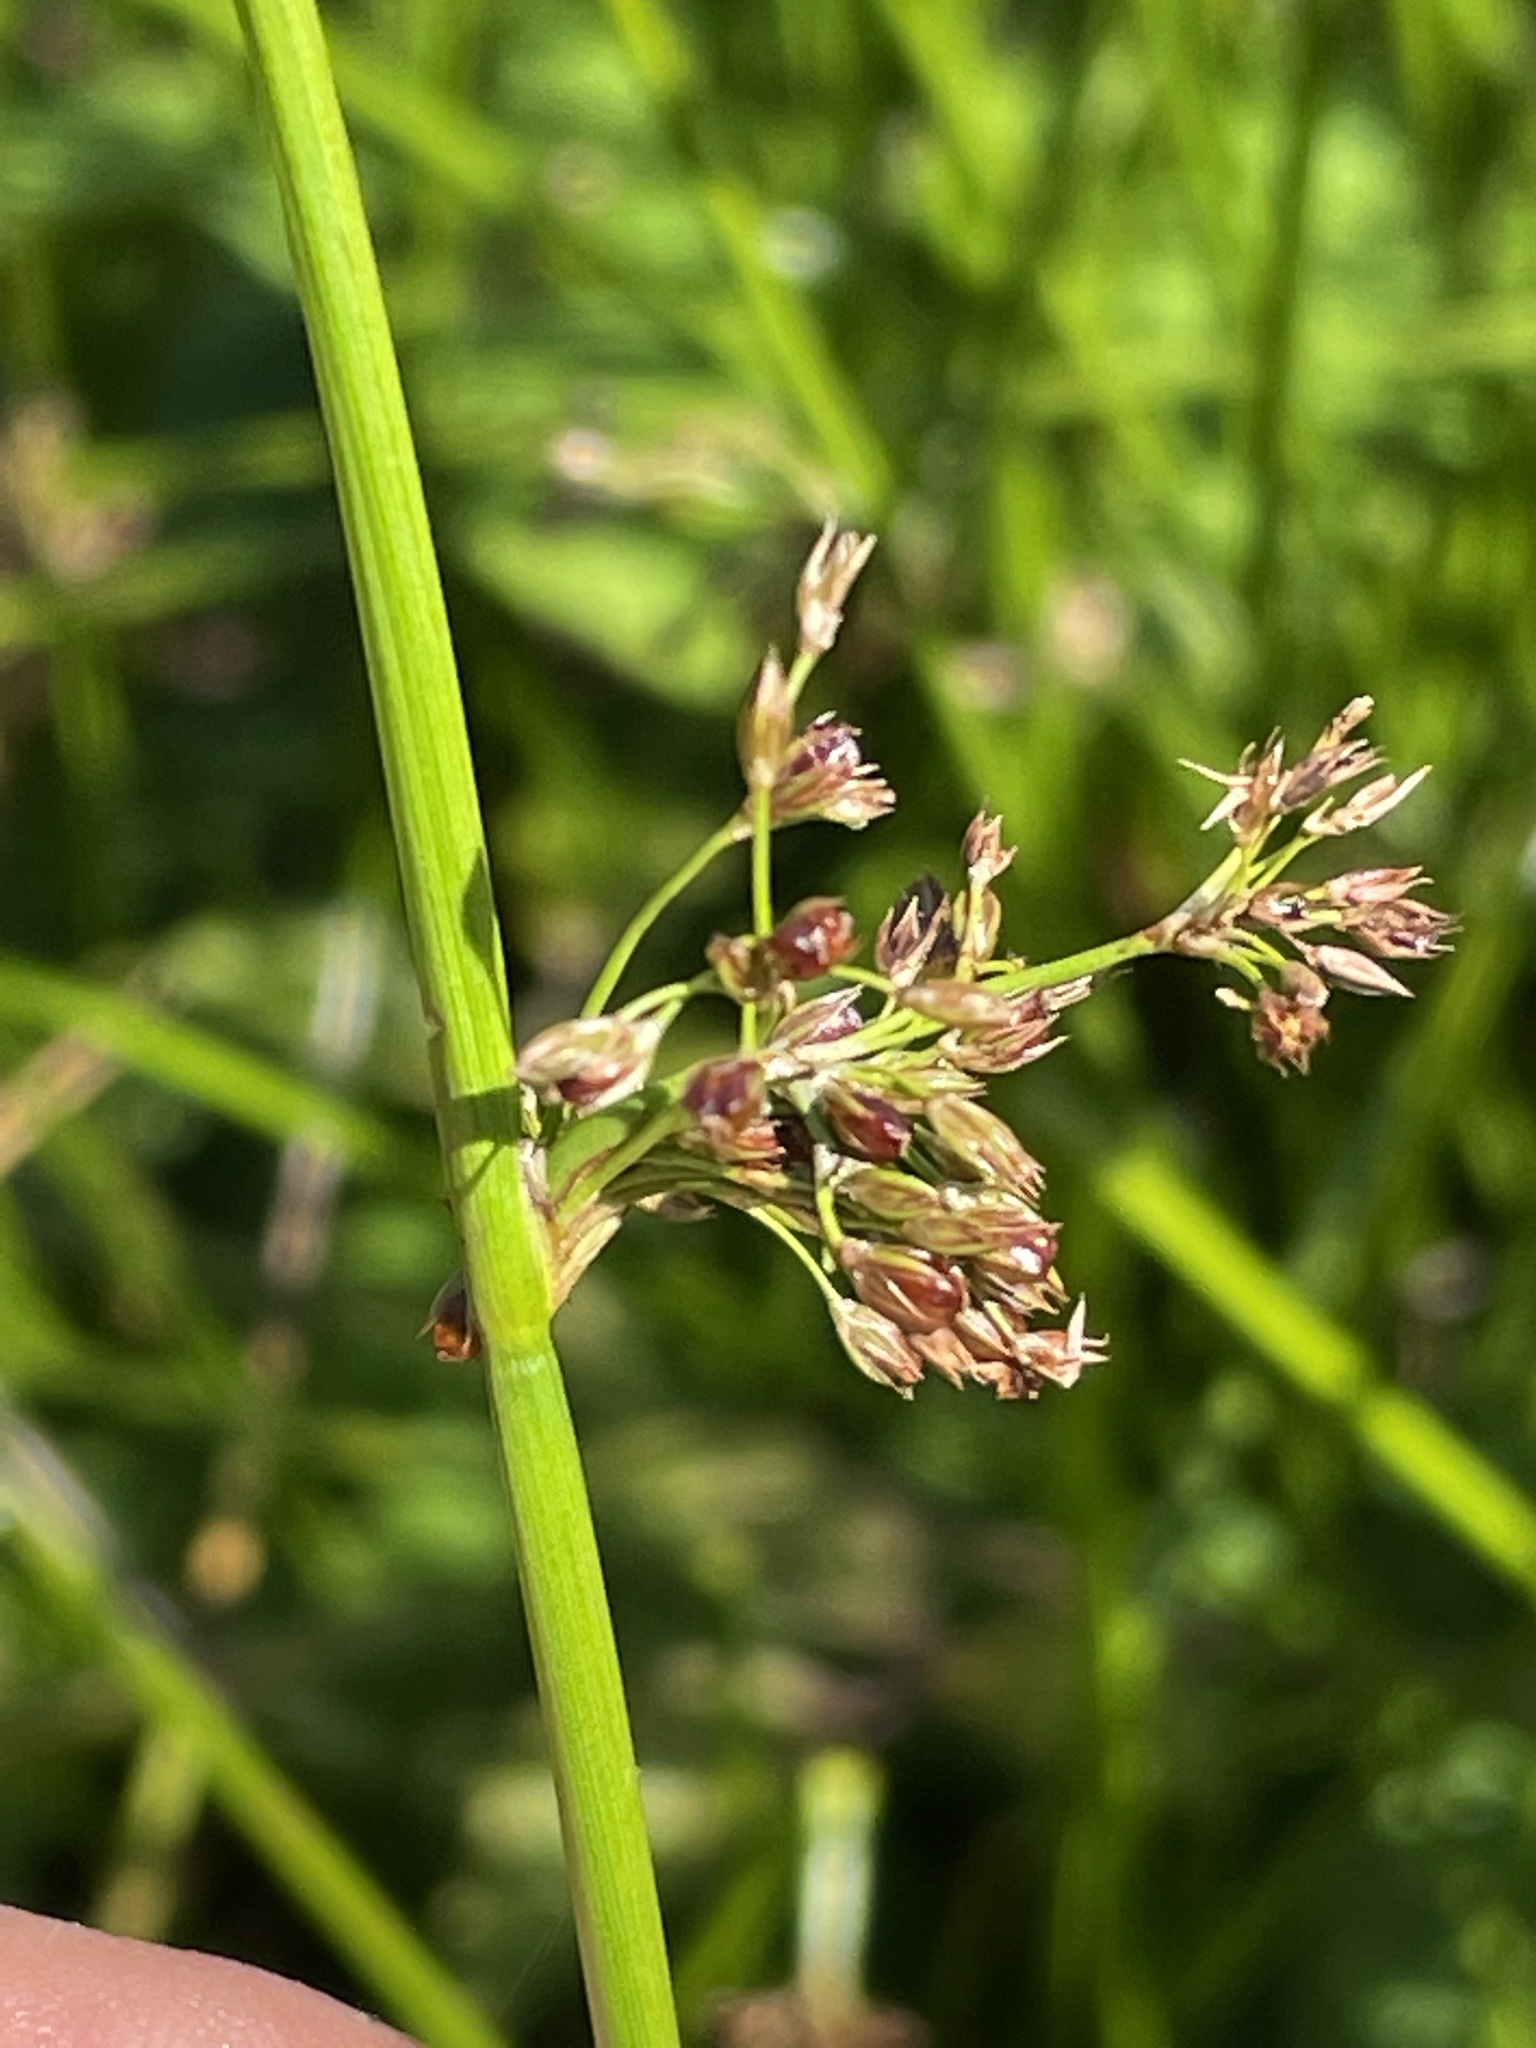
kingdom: Plantae
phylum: Tracheophyta
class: Liliopsida
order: Poales
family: Juncaceae
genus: Juncus
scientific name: Juncus effusus
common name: Soft rush
